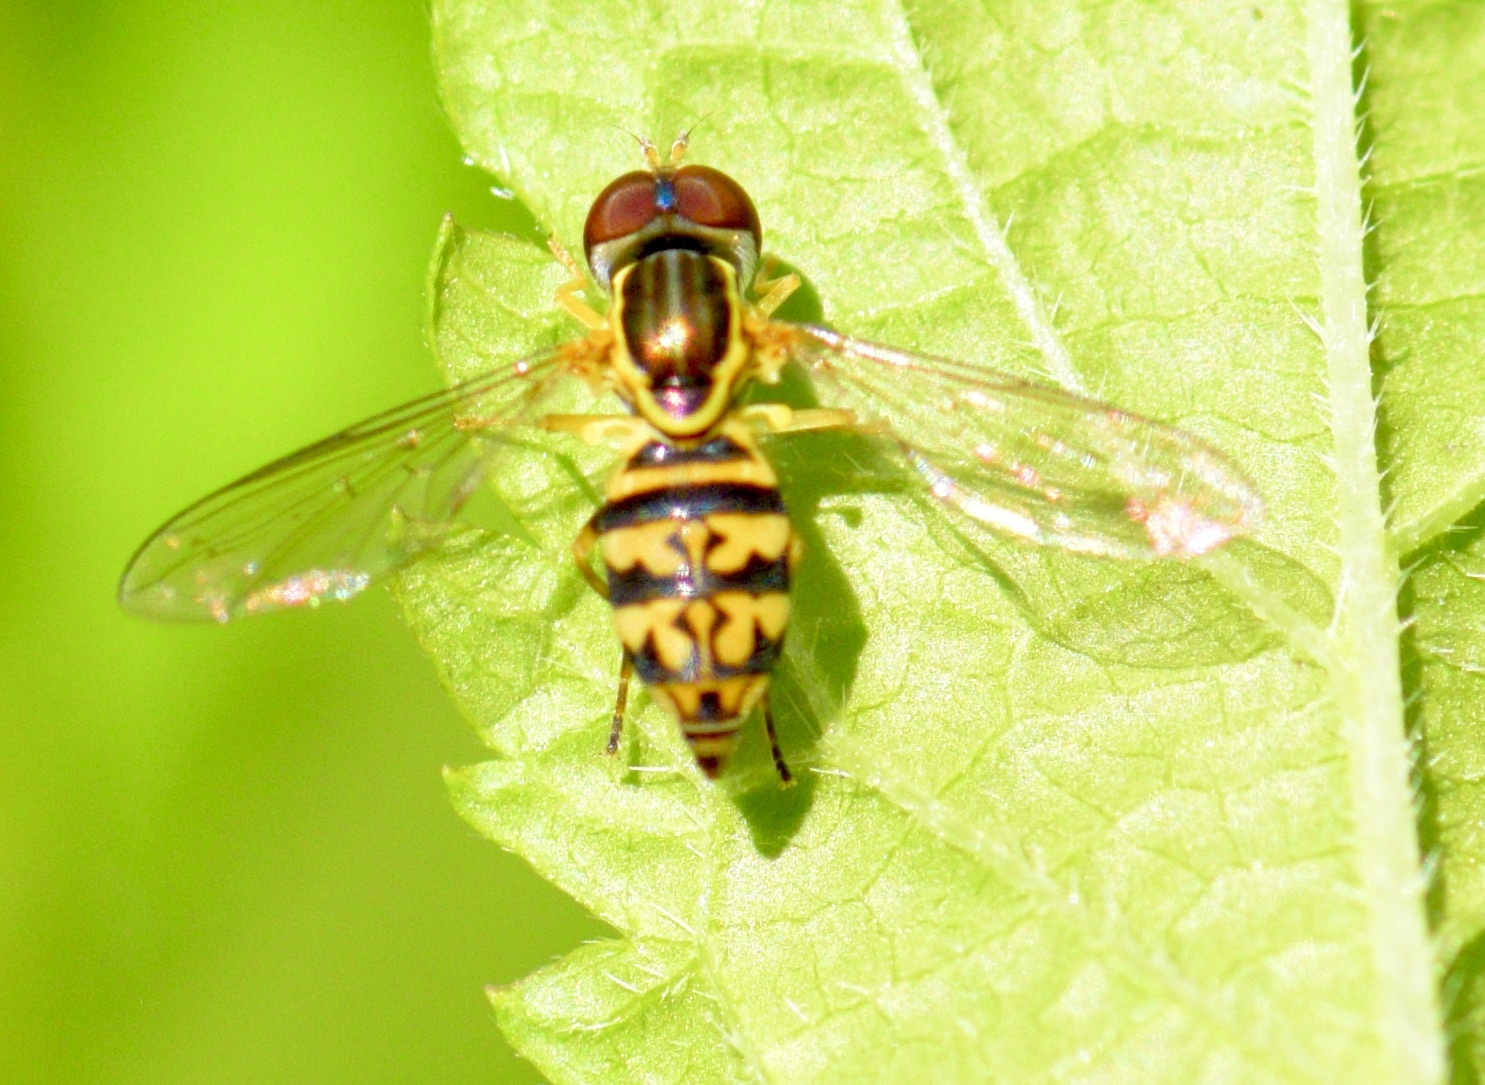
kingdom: Animalia
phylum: Arthropoda
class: Insecta
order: Diptera
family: Syrphidae
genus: Toxomerus
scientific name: Toxomerus geminatus
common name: Eastern calligrapher
